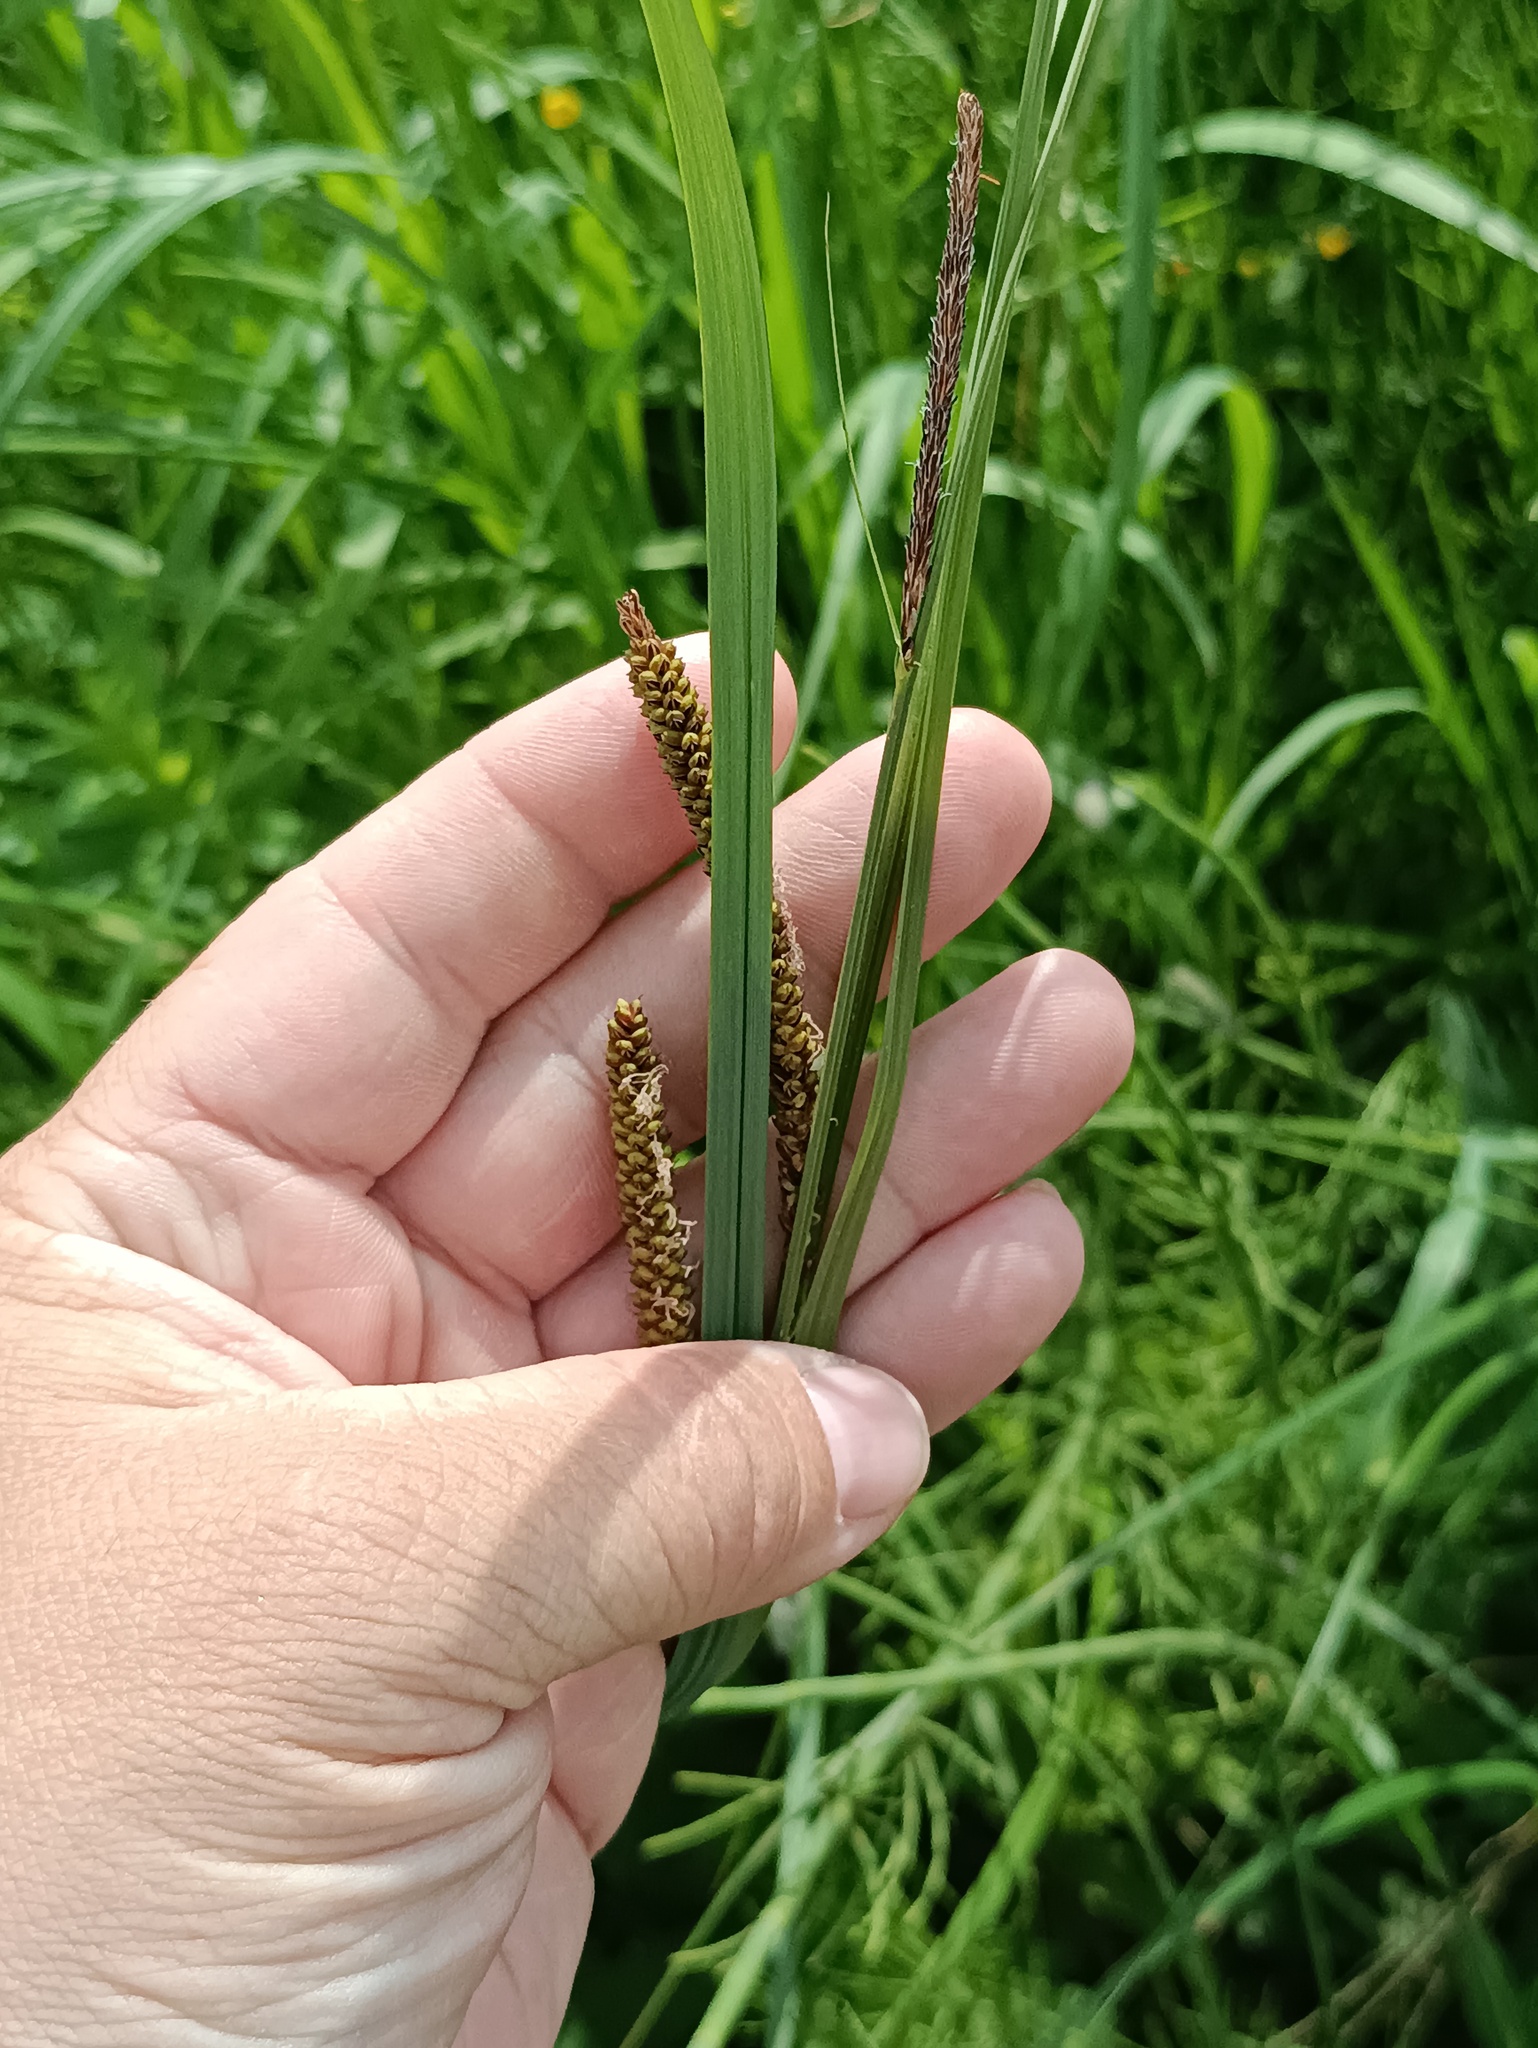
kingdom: Plantae
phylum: Tracheophyta
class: Liliopsida
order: Poales
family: Cyperaceae
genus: Carex
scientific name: Carex acuta
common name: Slender tufted-sedge
